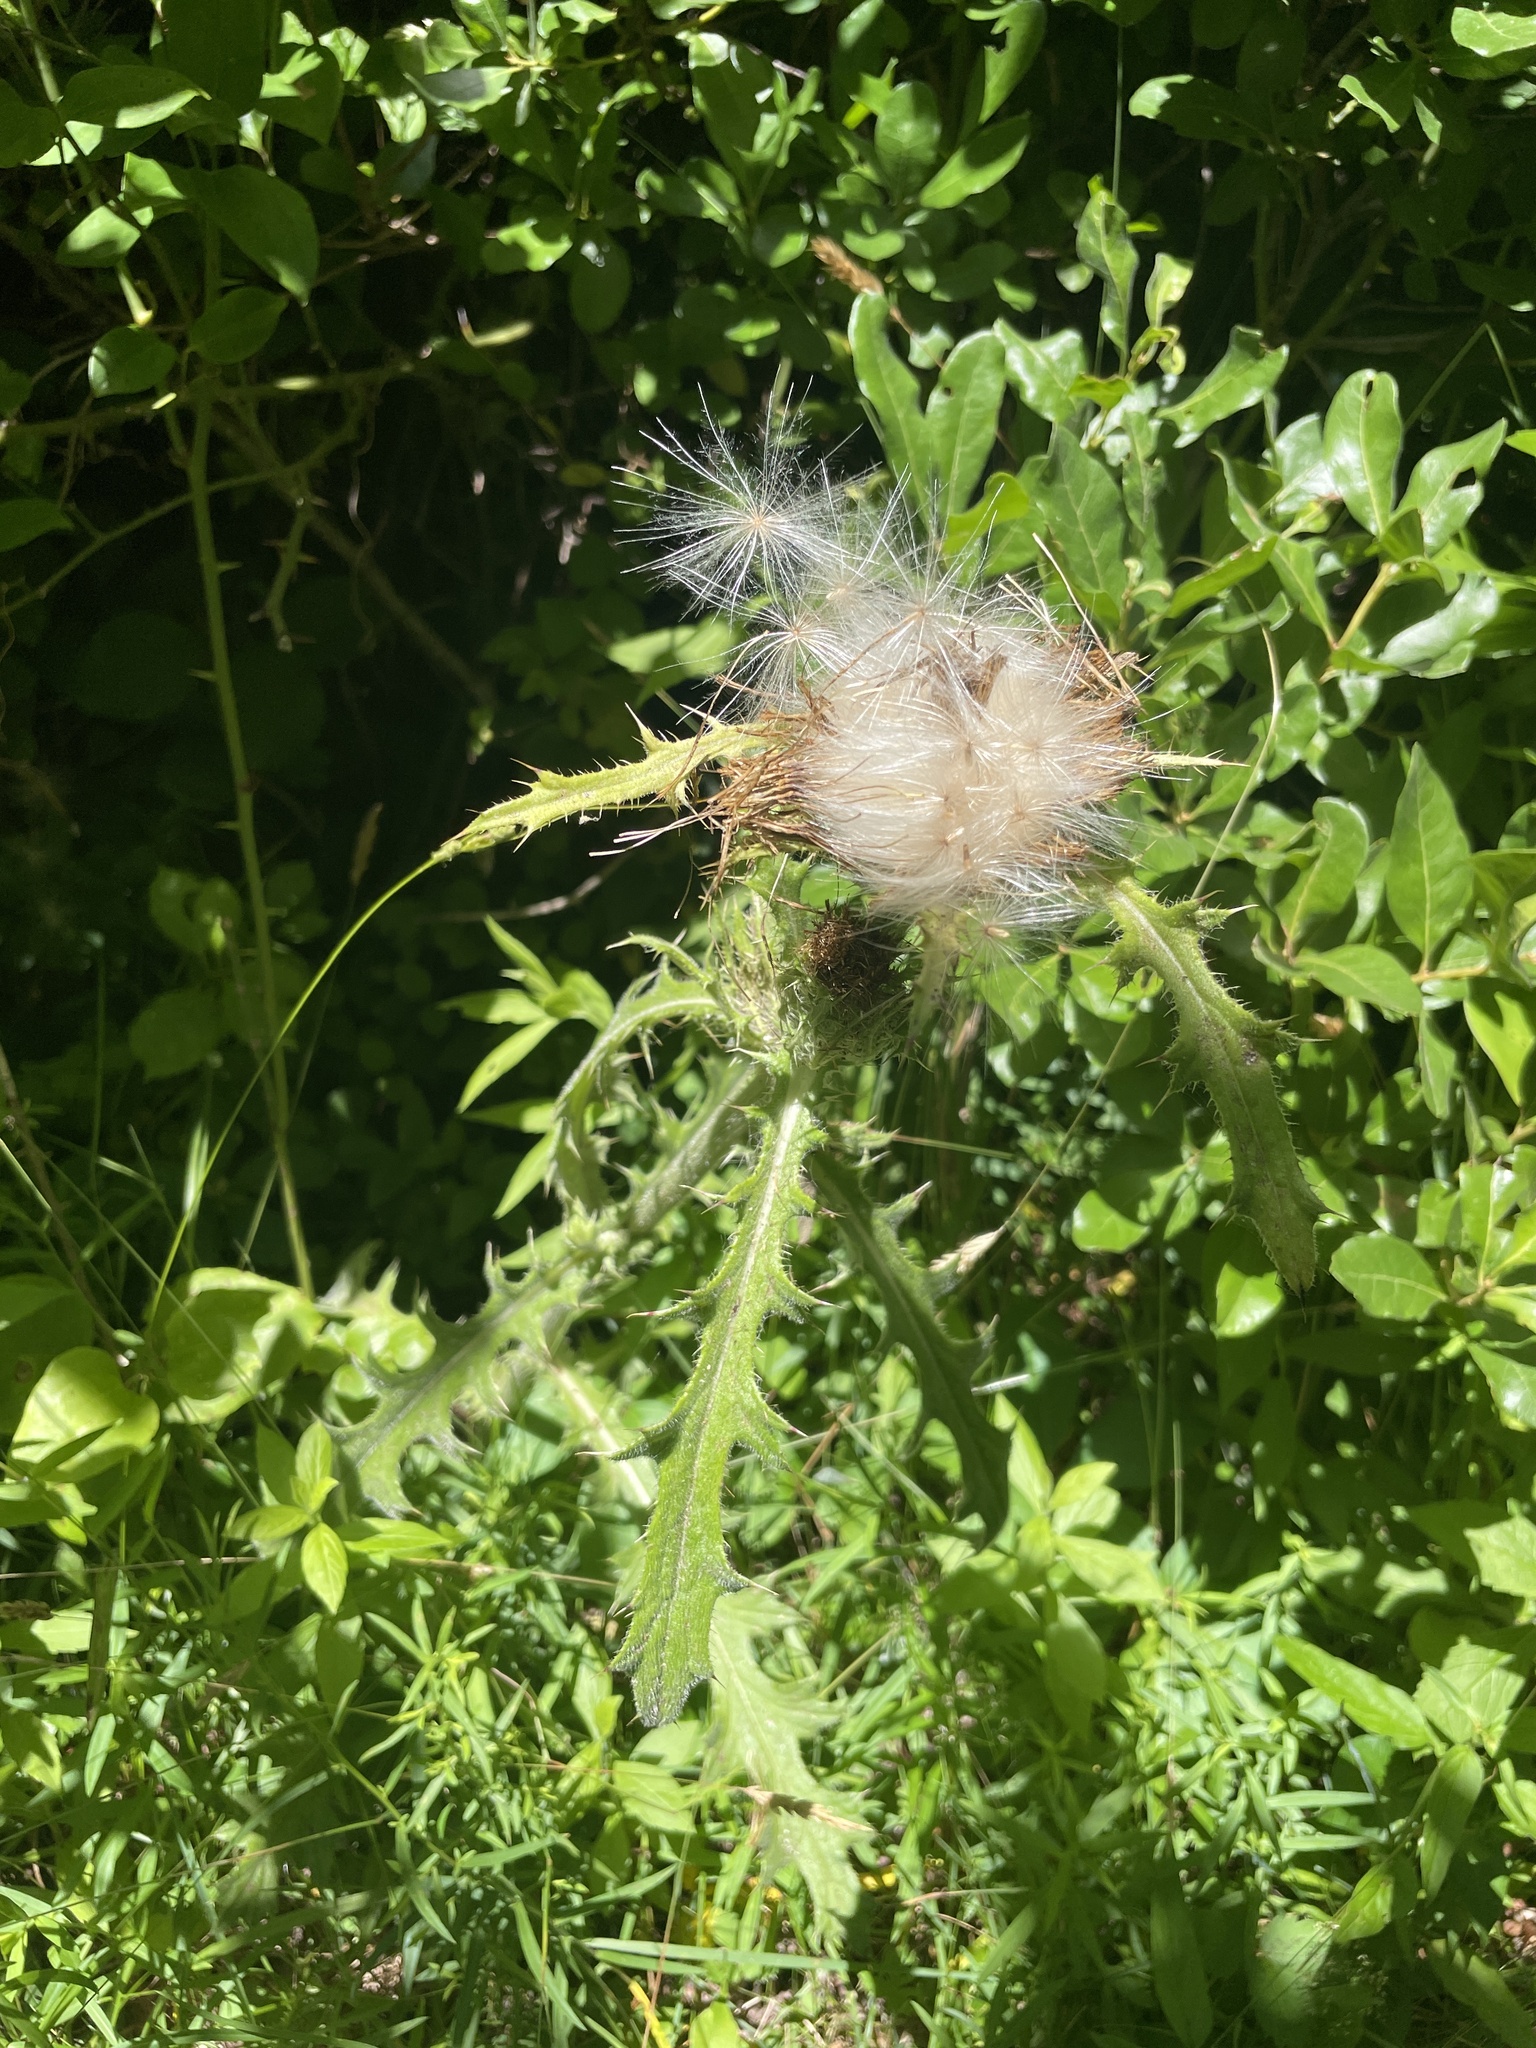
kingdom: Plantae
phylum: Tracheophyta
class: Magnoliopsida
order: Asterales
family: Asteraceae
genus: Cirsium
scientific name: Cirsium horridulum
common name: Bristly thistle
